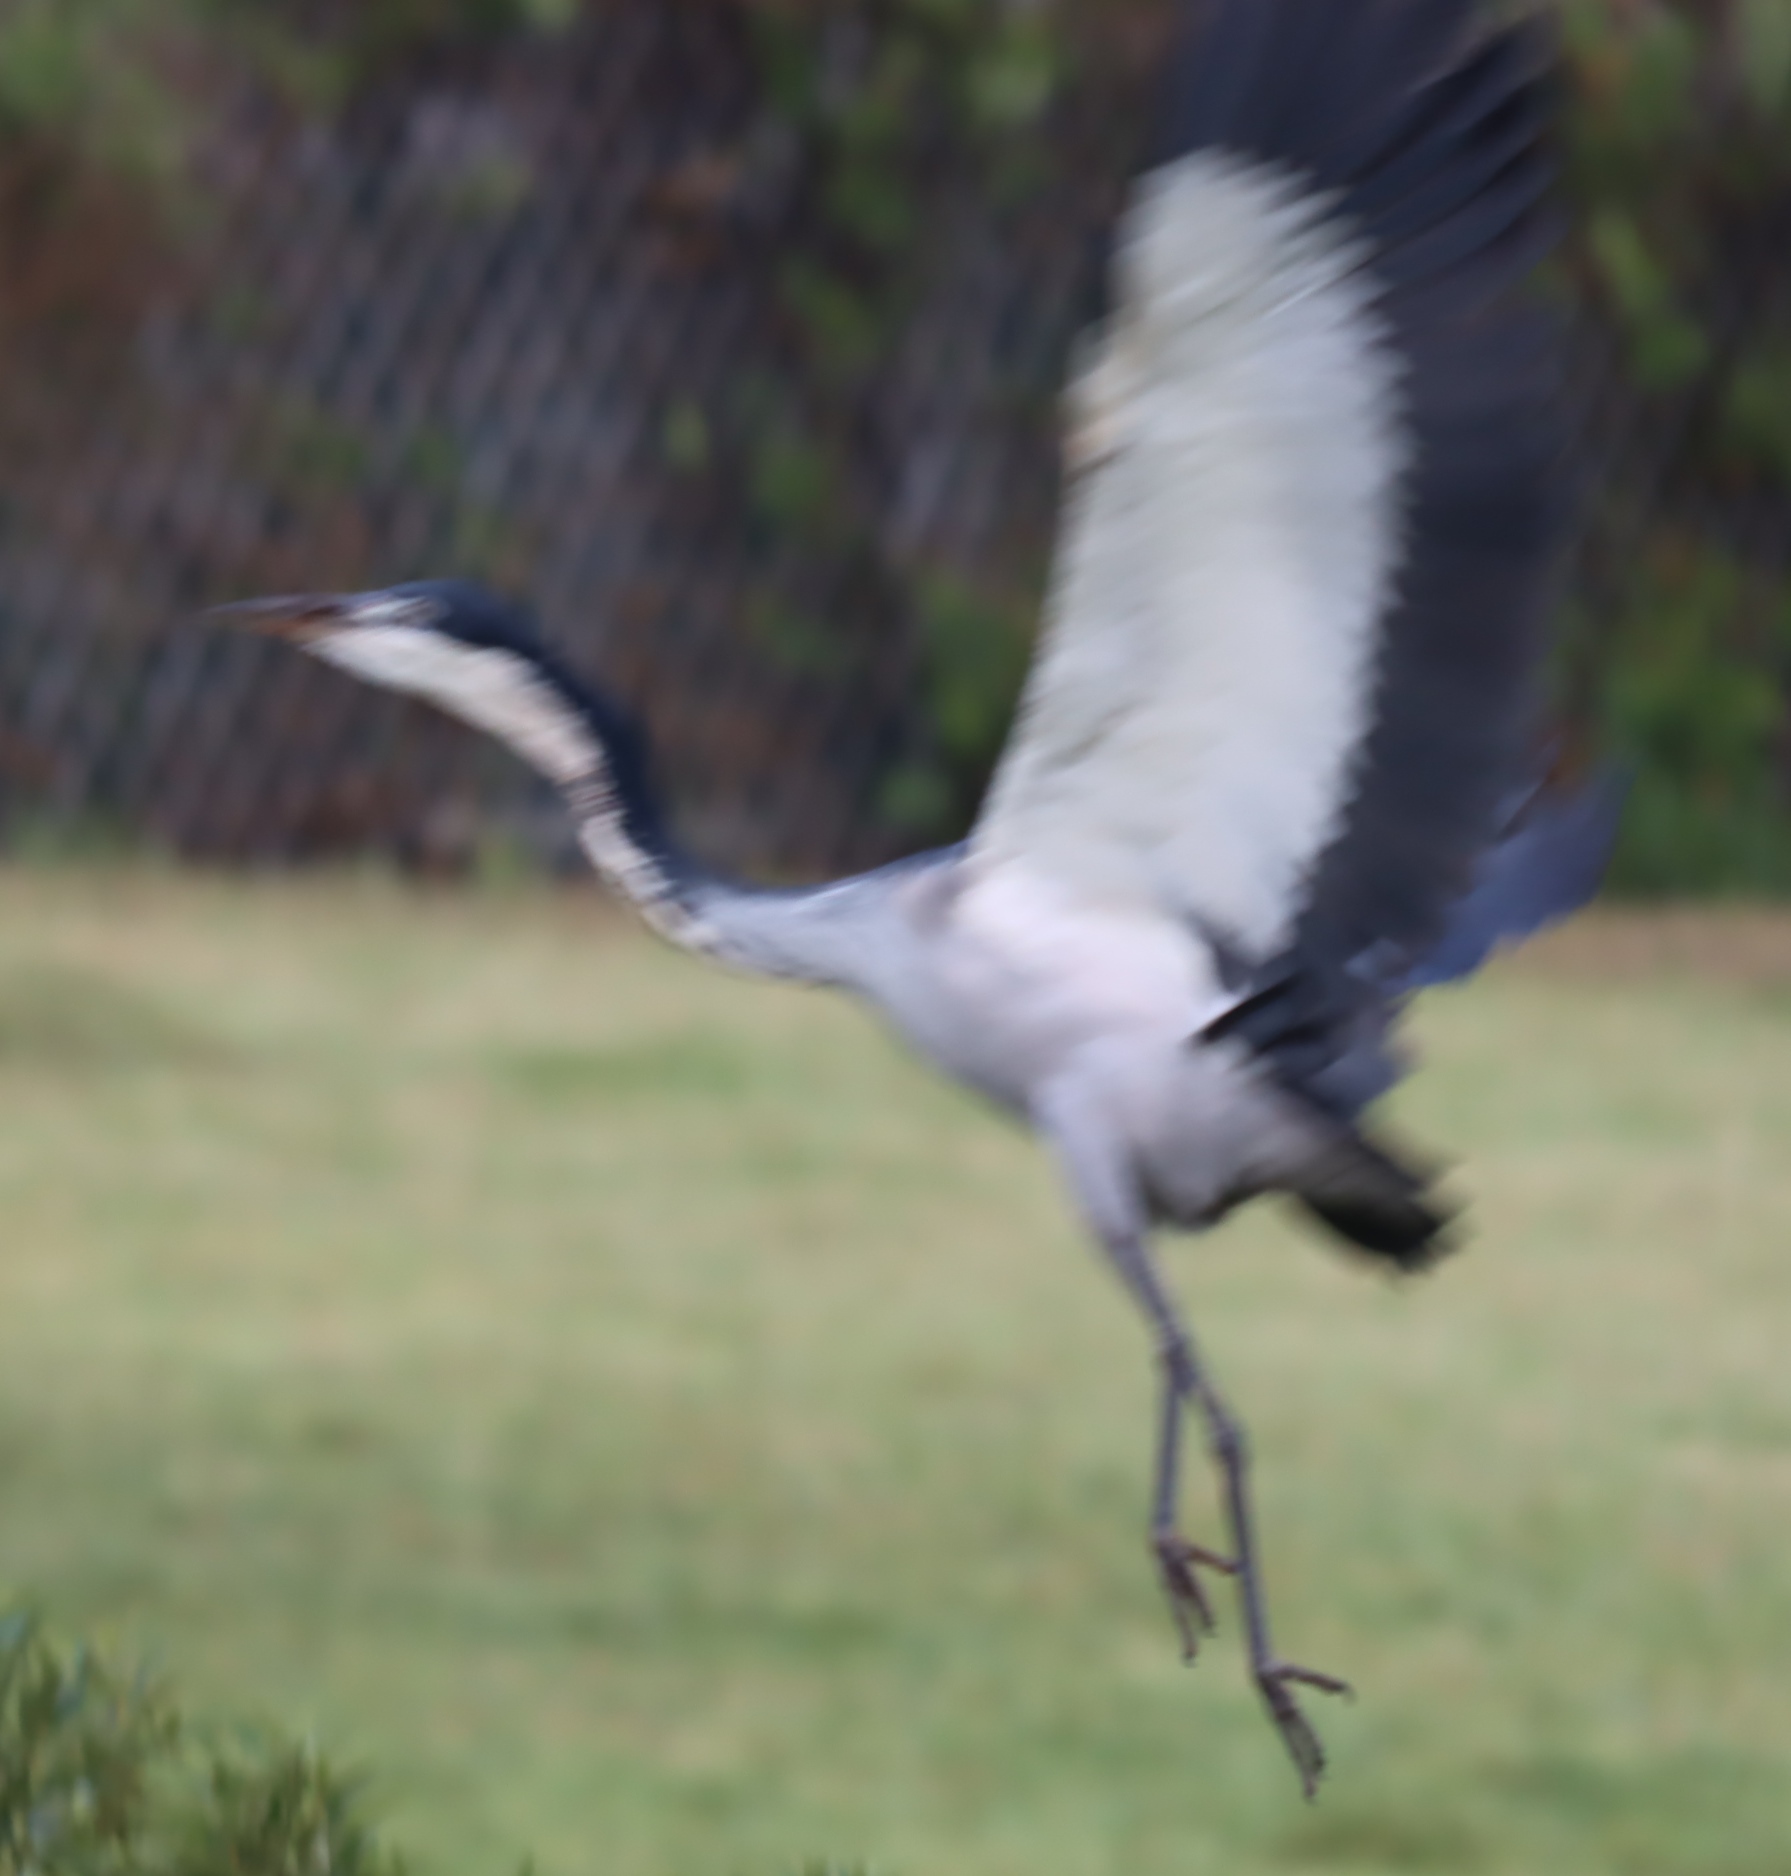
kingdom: Animalia
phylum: Chordata
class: Aves
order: Pelecaniformes
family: Ardeidae
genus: Ardea
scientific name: Ardea melanocephala
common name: Black-headed heron
